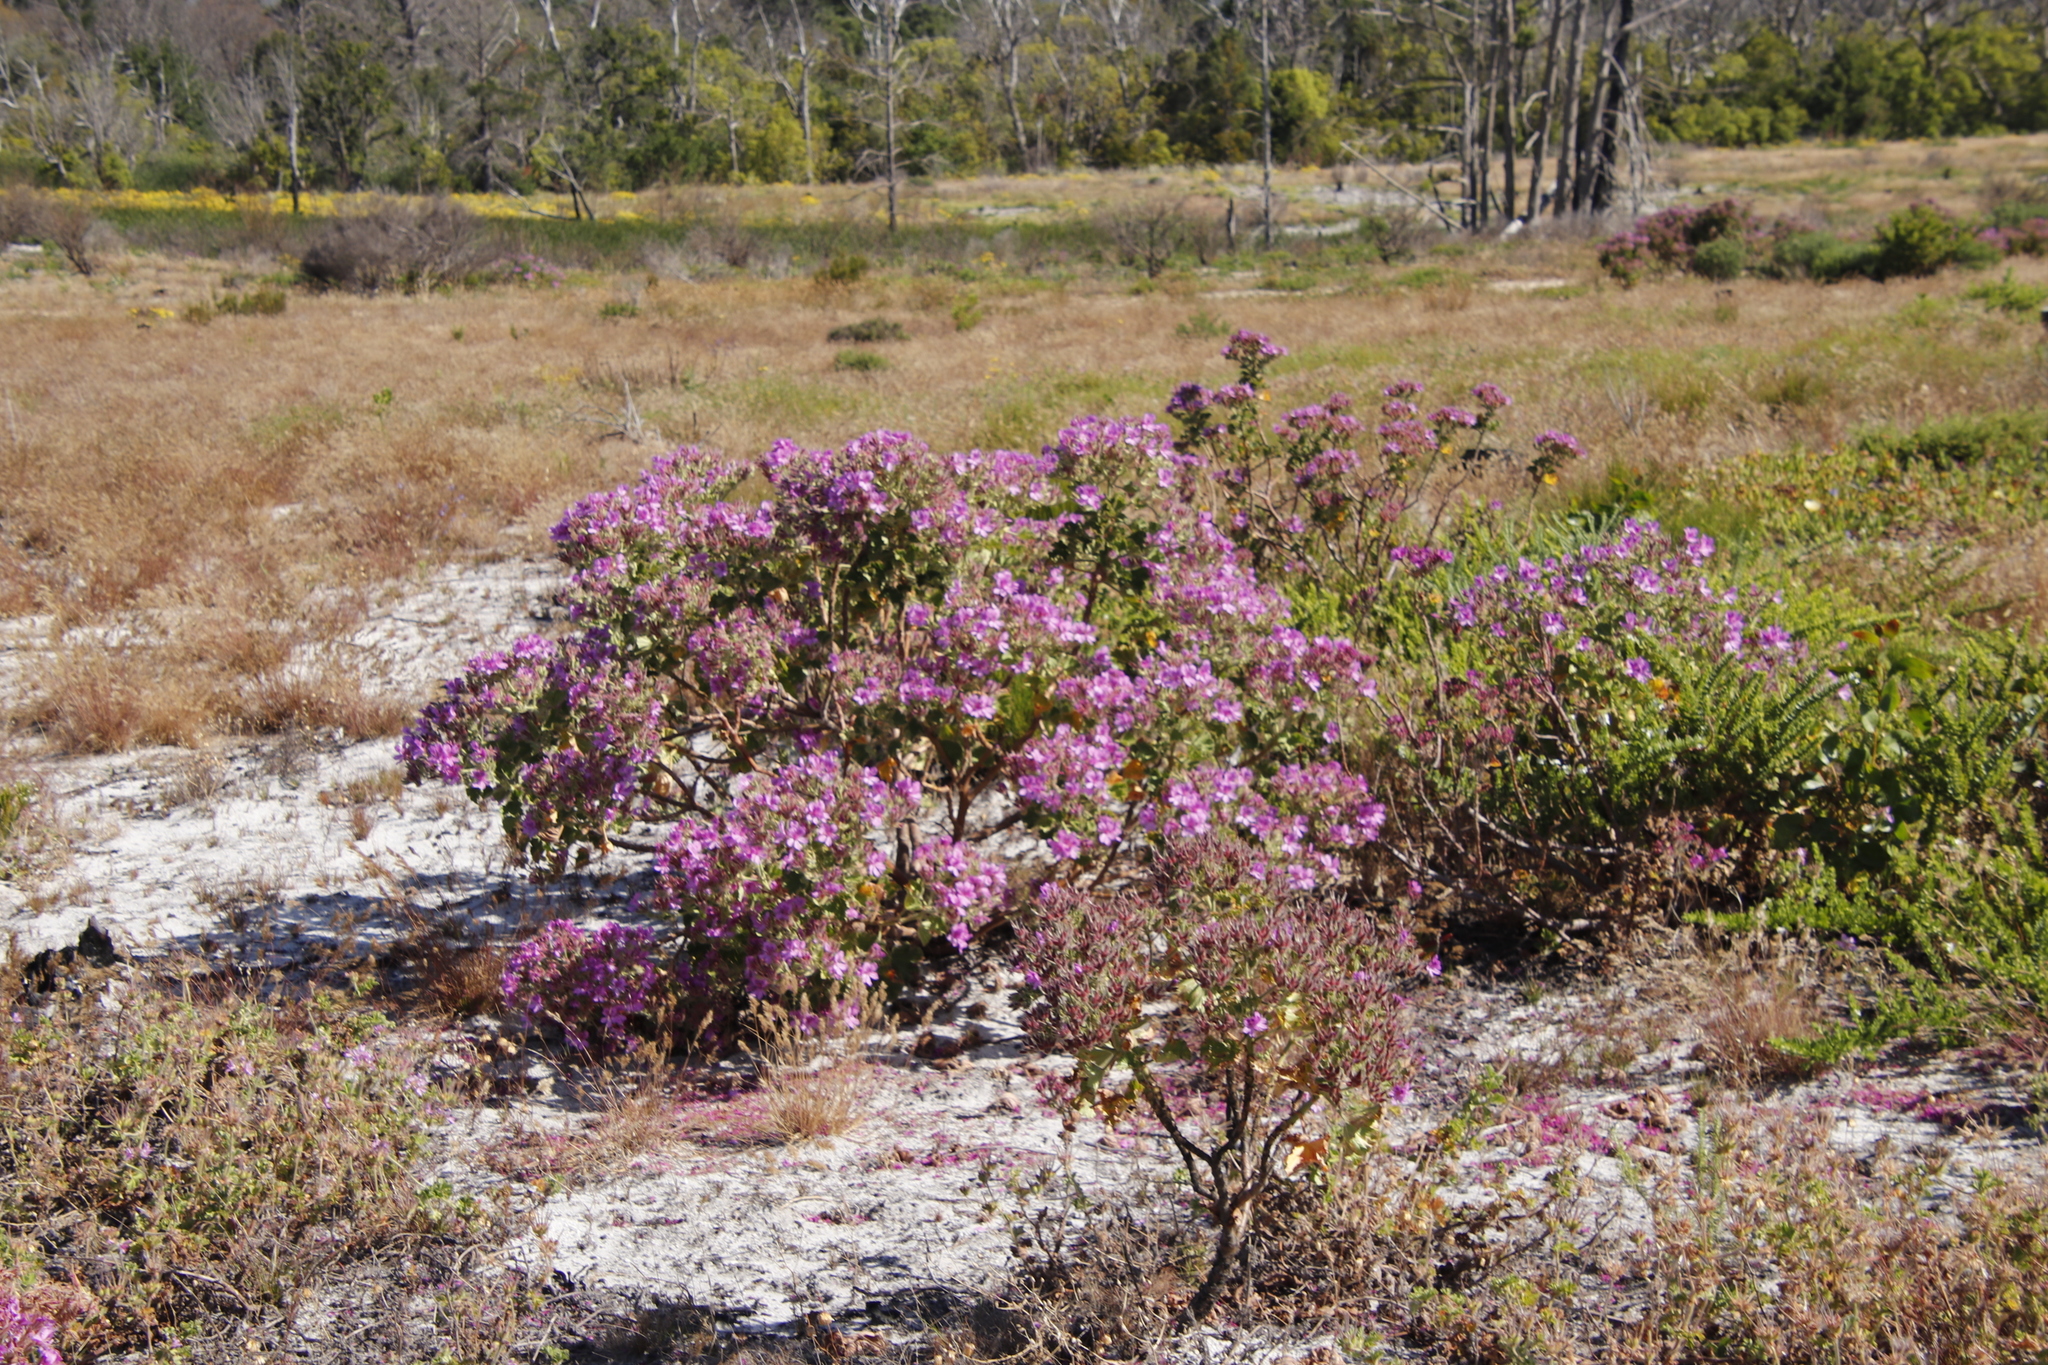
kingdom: Plantae
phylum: Tracheophyta
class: Magnoliopsida
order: Geraniales
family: Geraniaceae
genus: Pelargonium
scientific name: Pelargonium cucullatum
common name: Tree pelargonium
